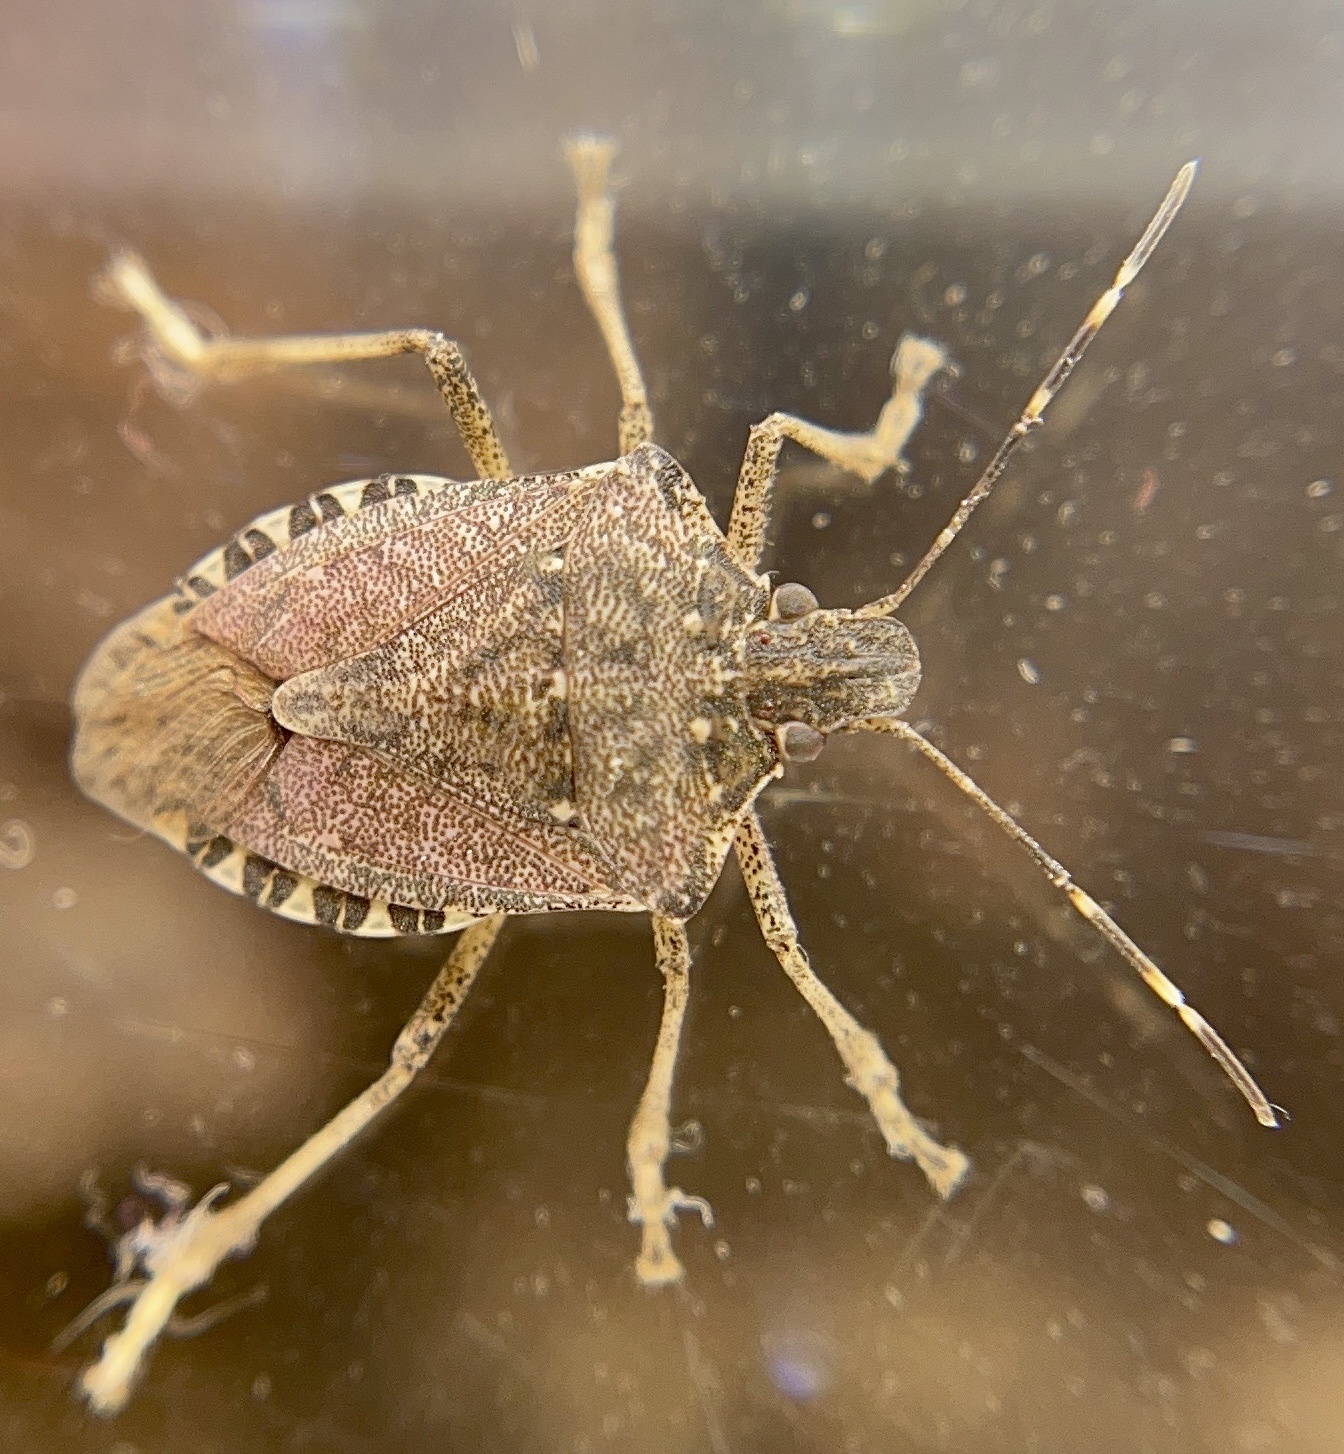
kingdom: Animalia
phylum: Arthropoda
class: Insecta
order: Hemiptera
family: Pentatomidae
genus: Halyomorpha
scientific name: Halyomorpha halys
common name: Brown marmorated stink bug
